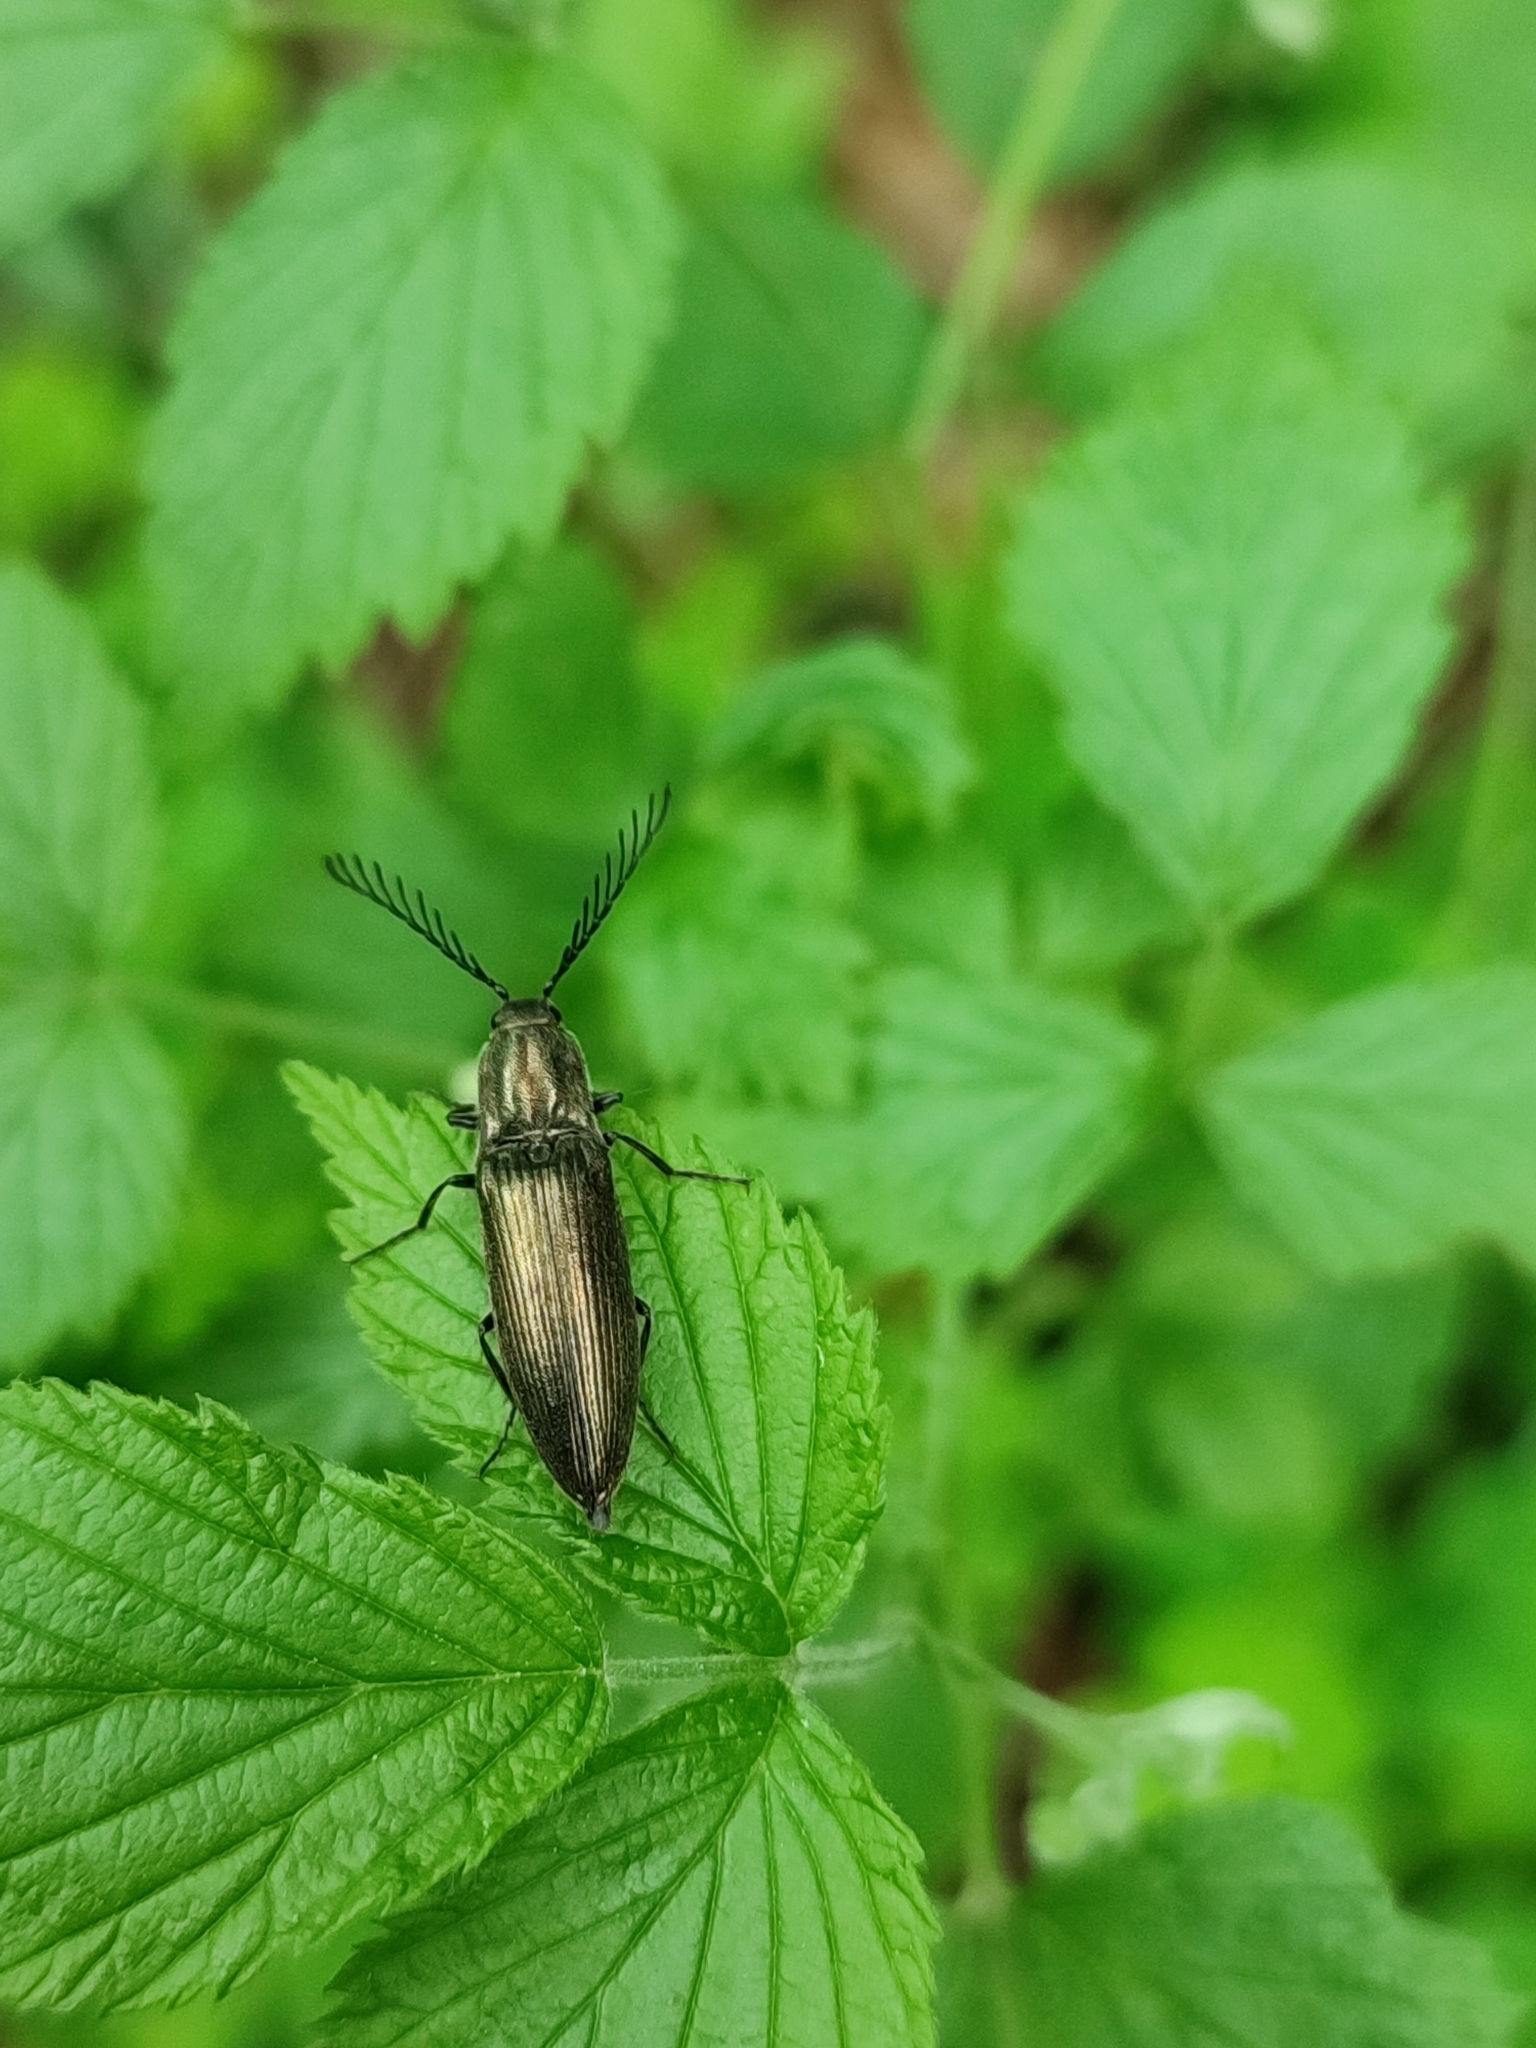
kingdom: Animalia
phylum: Arthropoda
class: Insecta
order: Coleoptera
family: Elateridae
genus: Ctenicera
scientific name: Ctenicera pectinicornis
